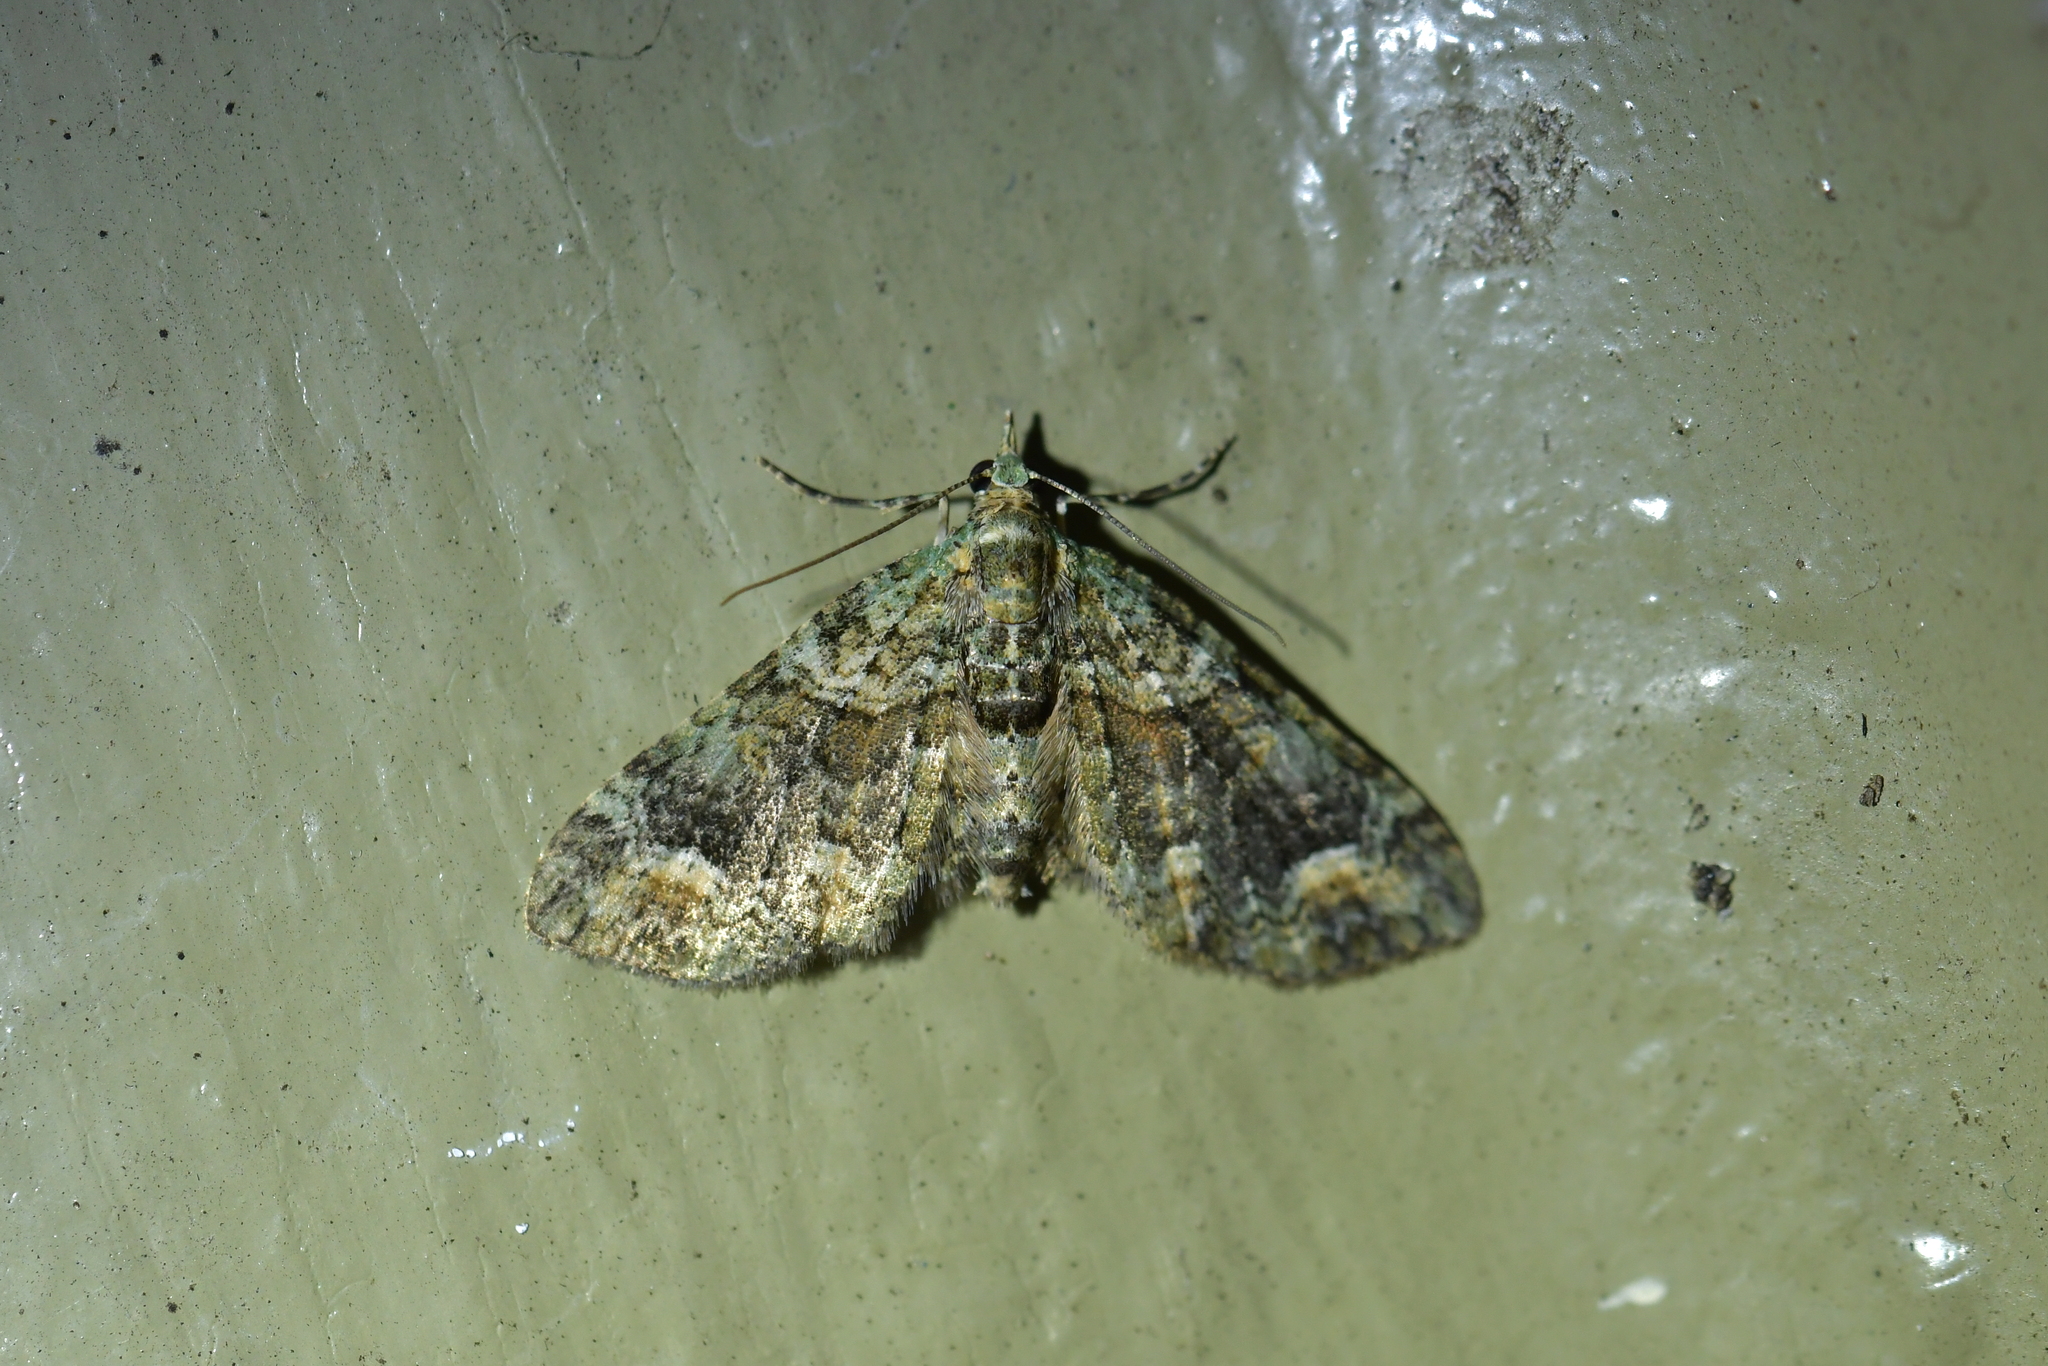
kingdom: Animalia
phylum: Arthropoda
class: Insecta
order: Lepidoptera
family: Geometridae
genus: Idaea
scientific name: Idaea mutanda
